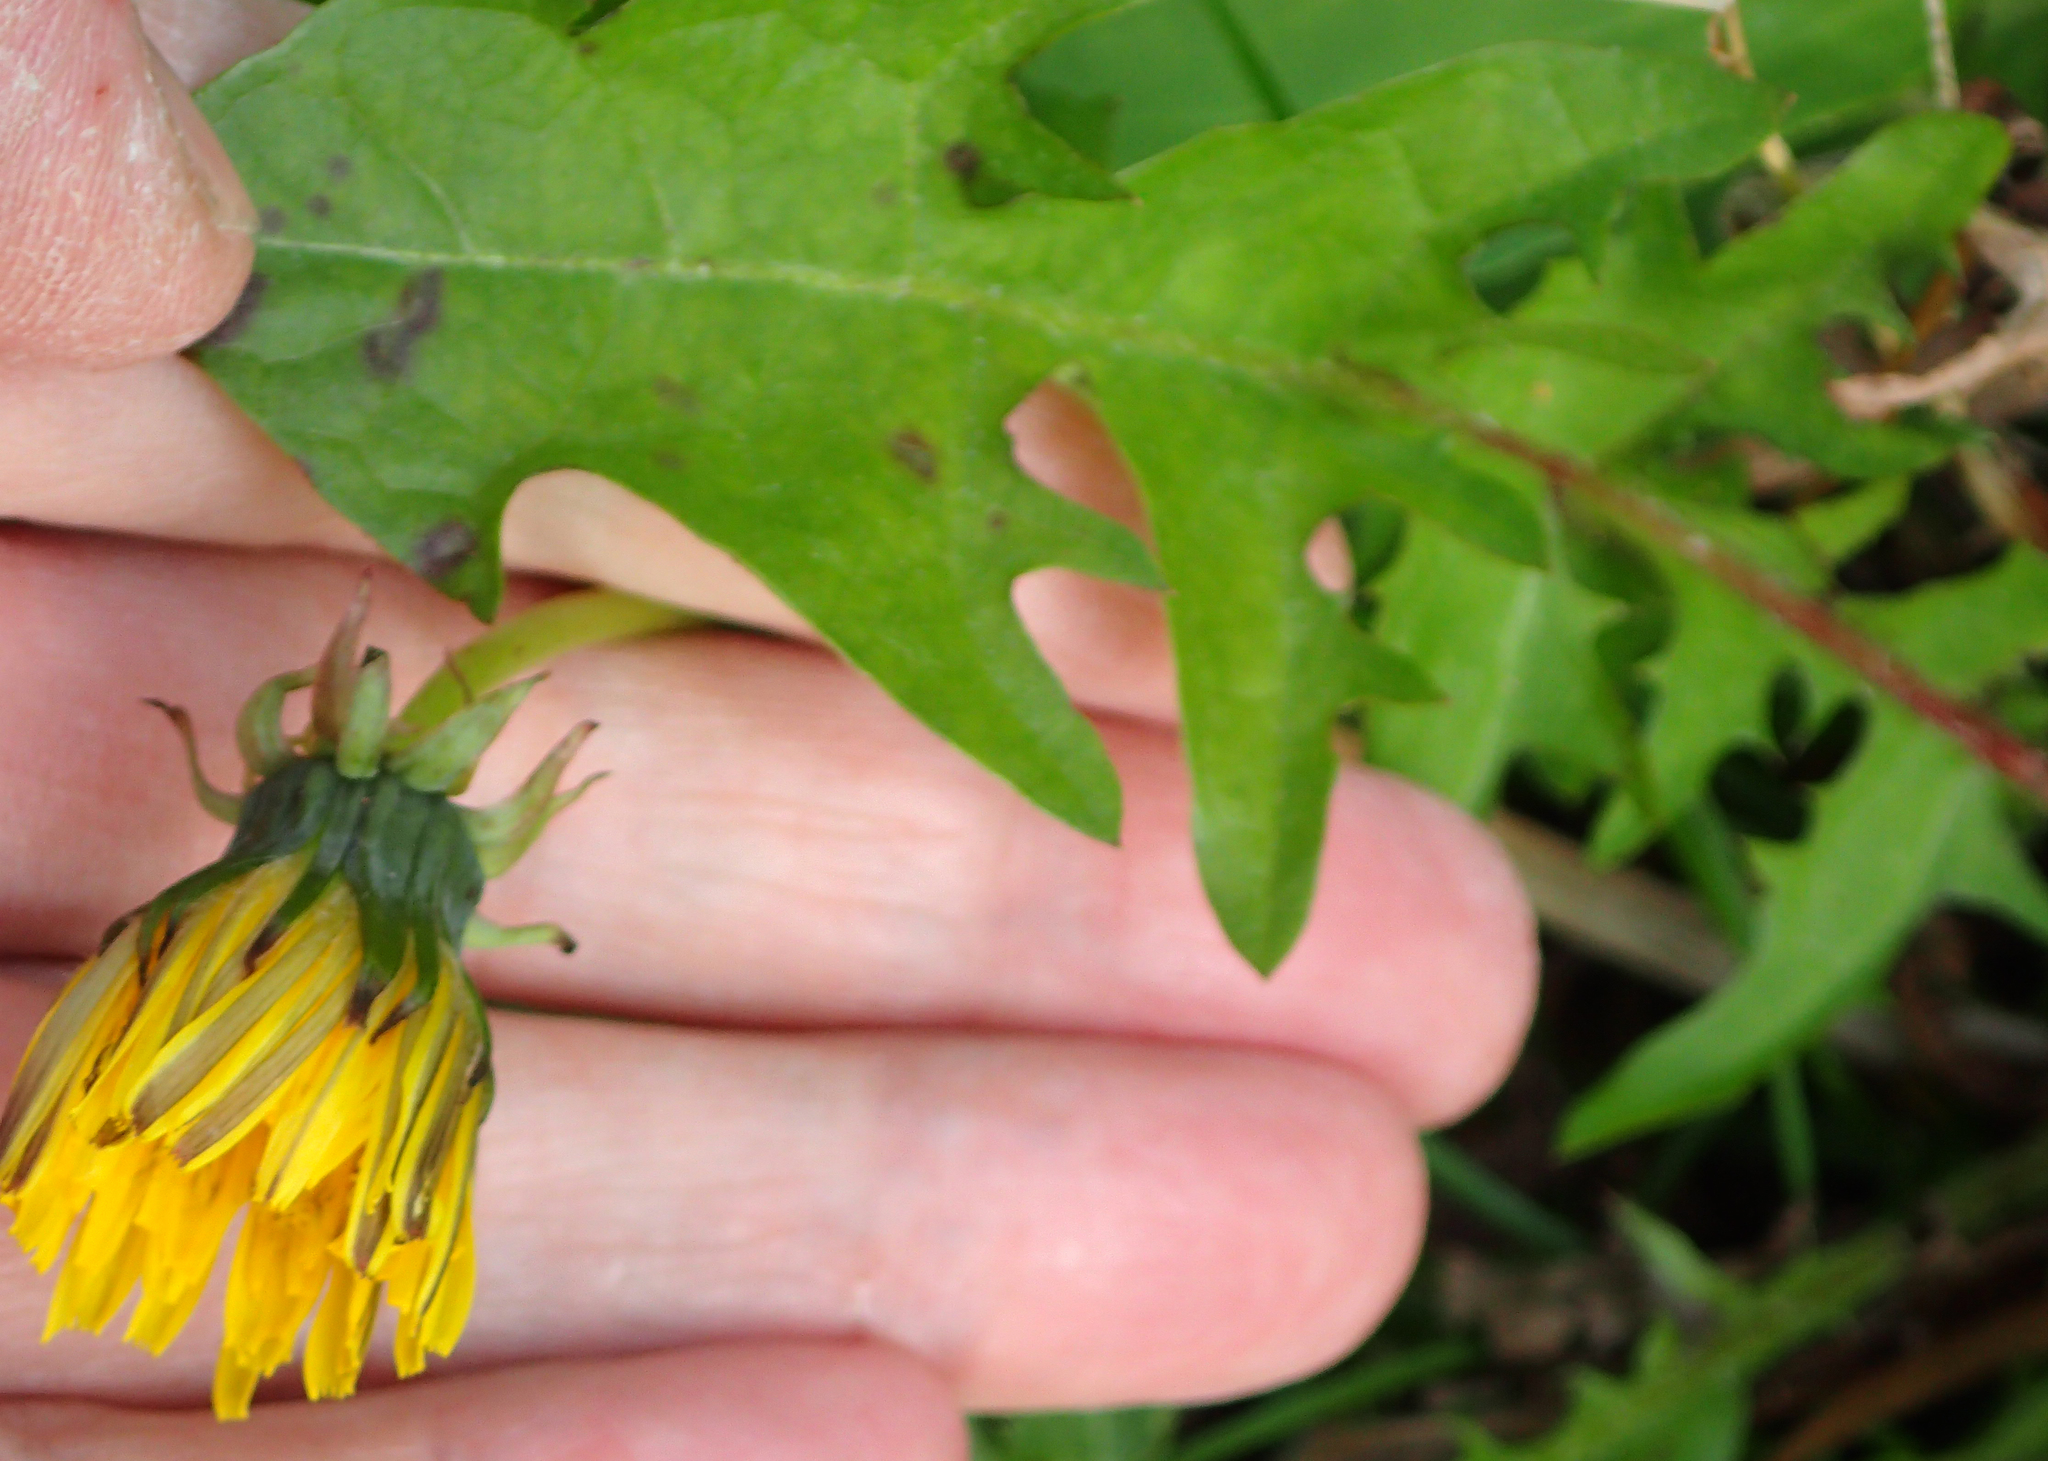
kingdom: Plantae
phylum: Tracheophyta
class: Magnoliopsida
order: Asterales
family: Asteraceae
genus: Taraxacum
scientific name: Taraxacum officinale
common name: Common dandelion
